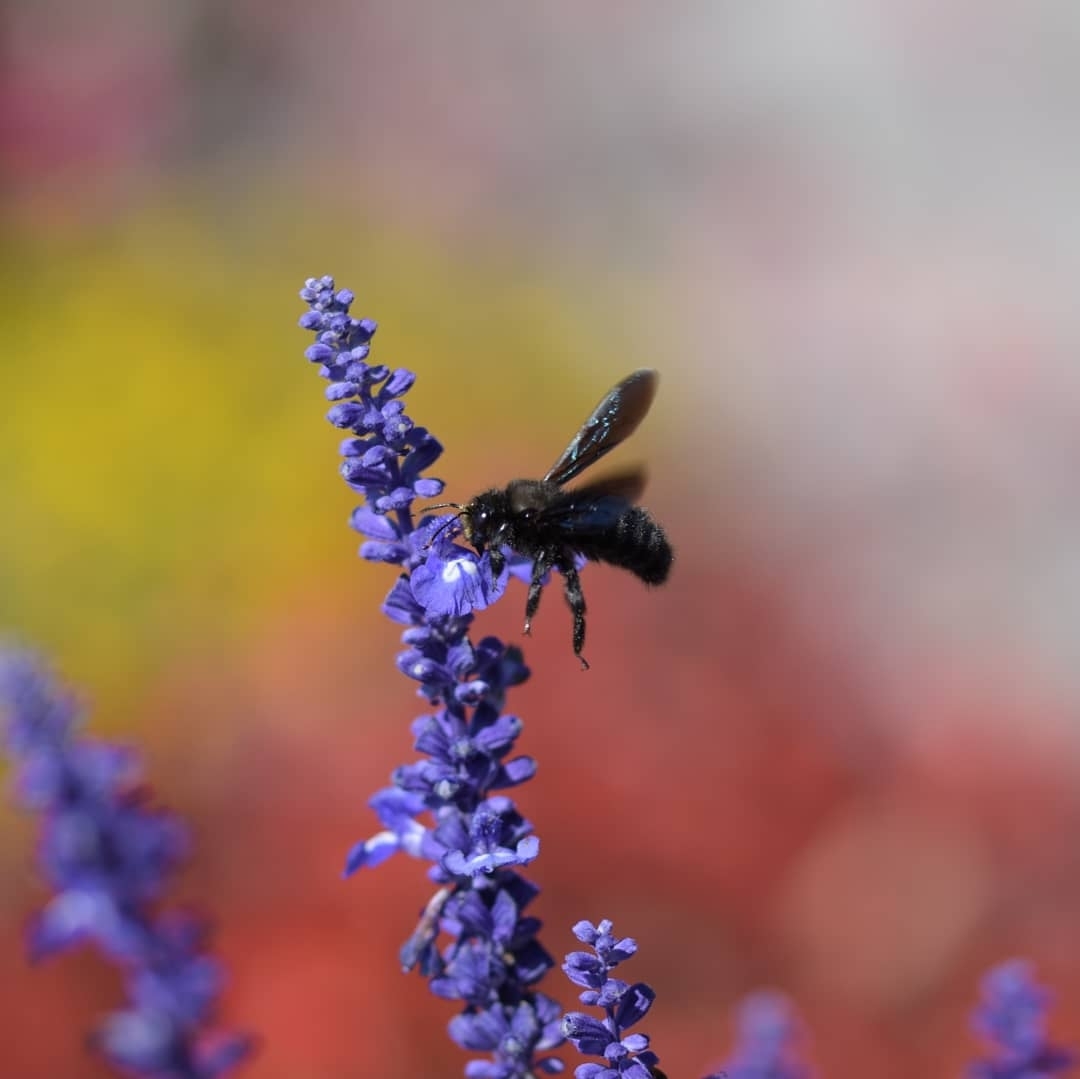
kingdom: Animalia
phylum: Arthropoda
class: Insecta
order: Hymenoptera
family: Apidae
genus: Xylocopa
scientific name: Xylocopa violacea
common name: Violet carpenter bee
